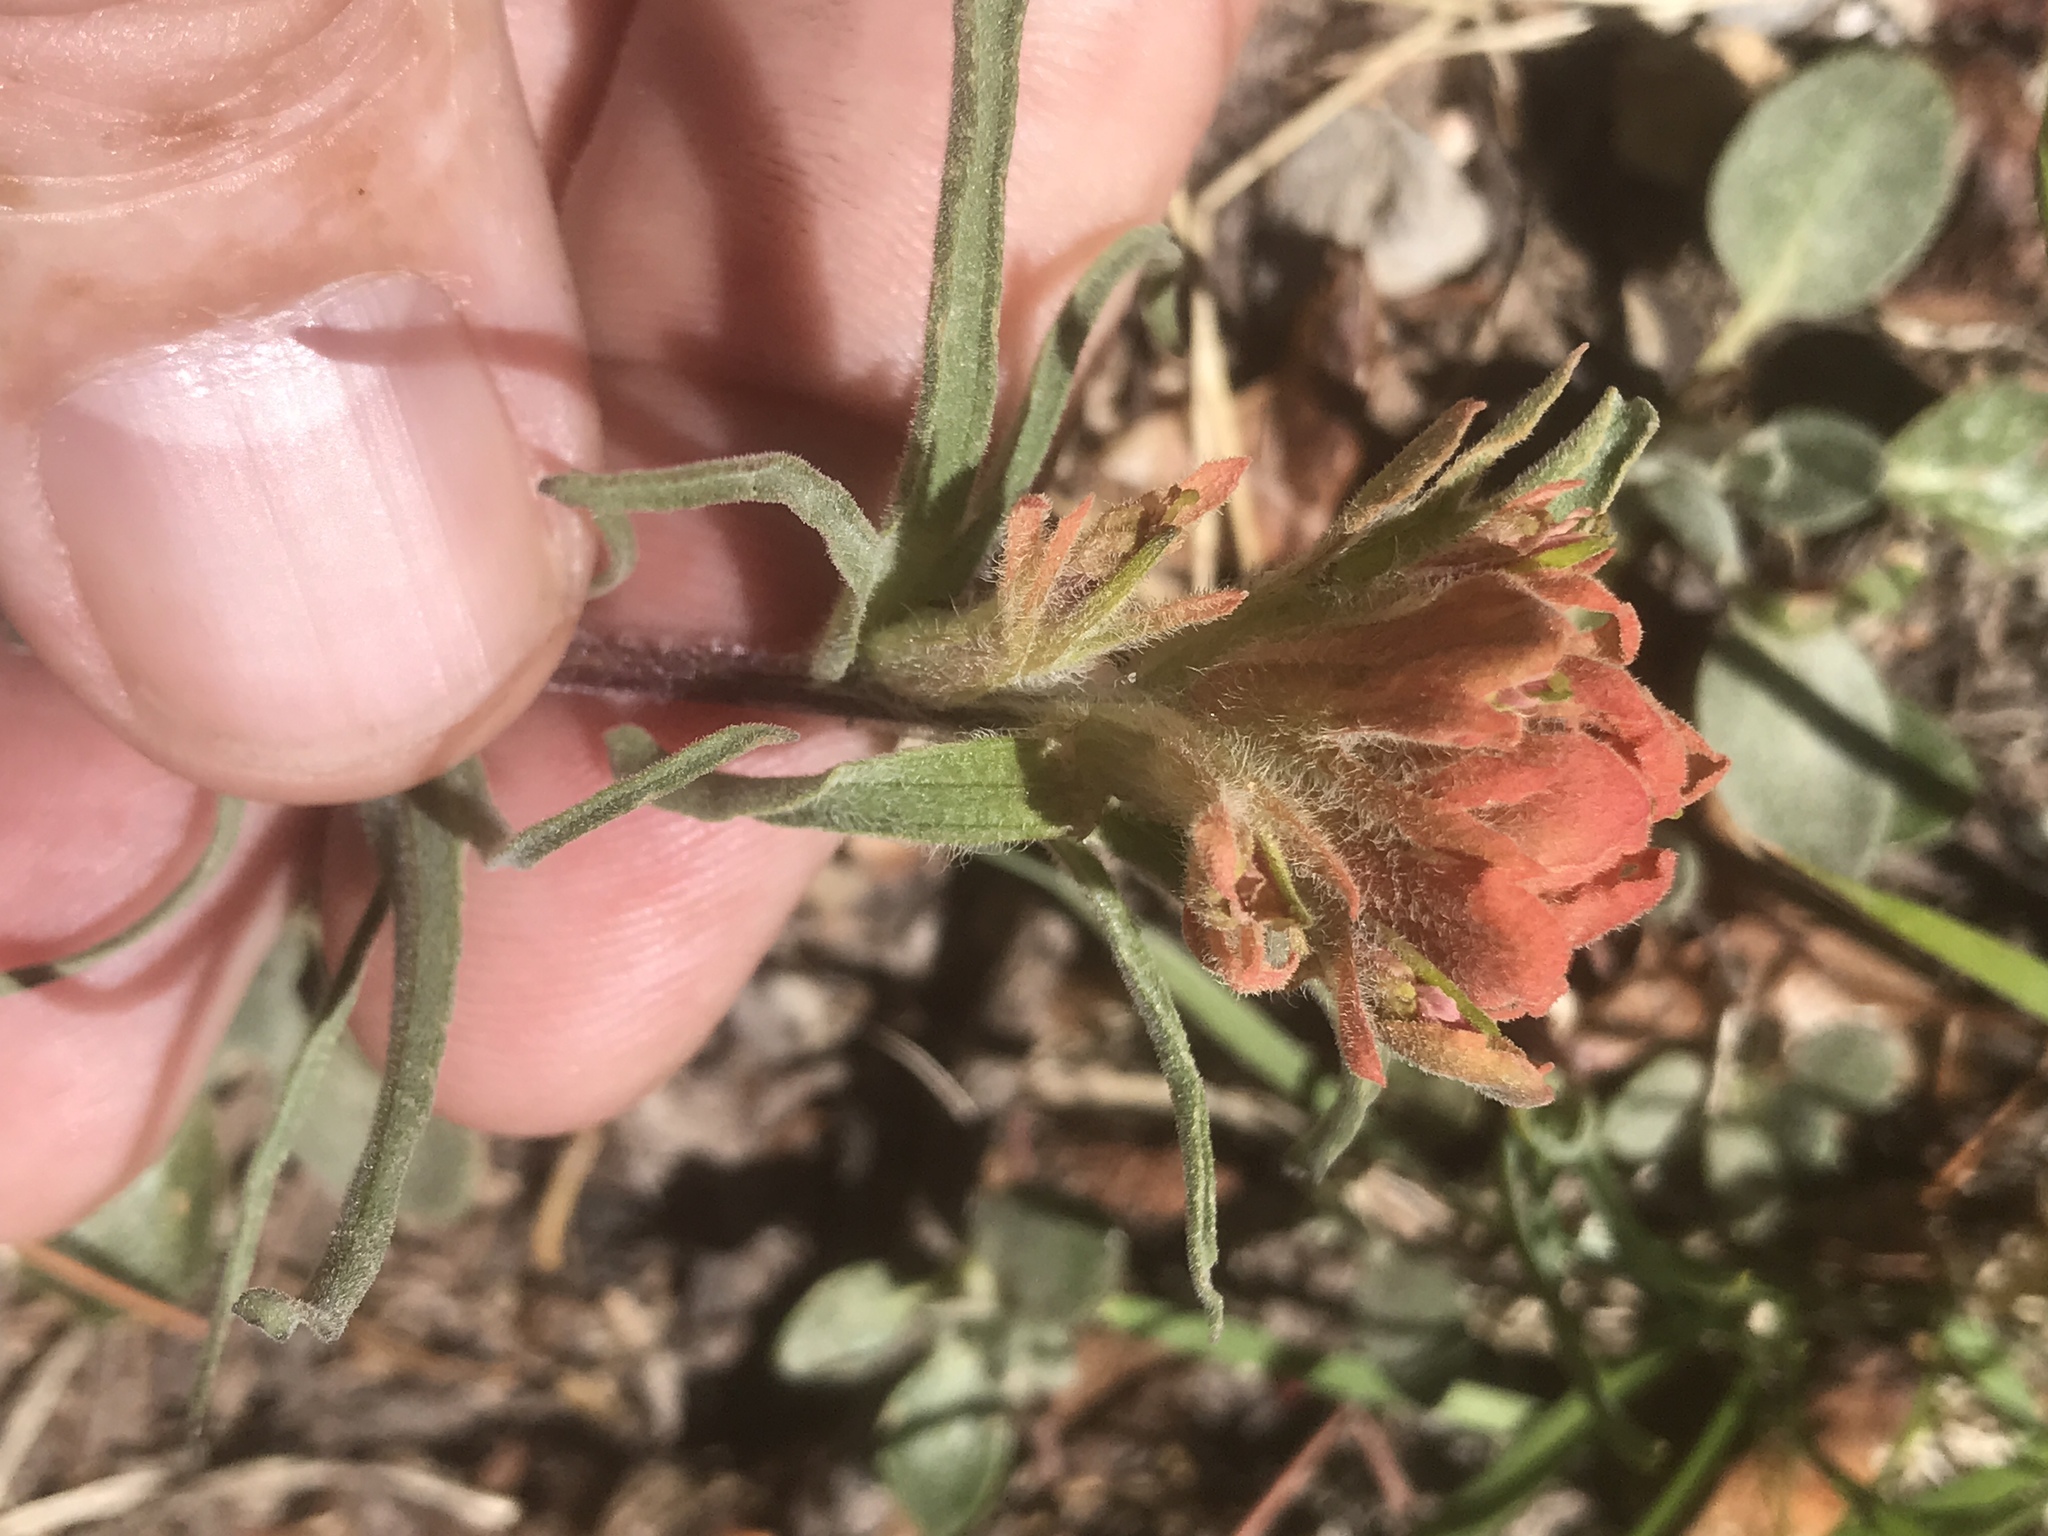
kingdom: Plantae
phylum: Tracheophyta
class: Magnoliopsida
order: Lamiales
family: Orobanchaceae
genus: Castilleja
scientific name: Castilleja arachnoidea
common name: Cobwebby indian paintbrush
